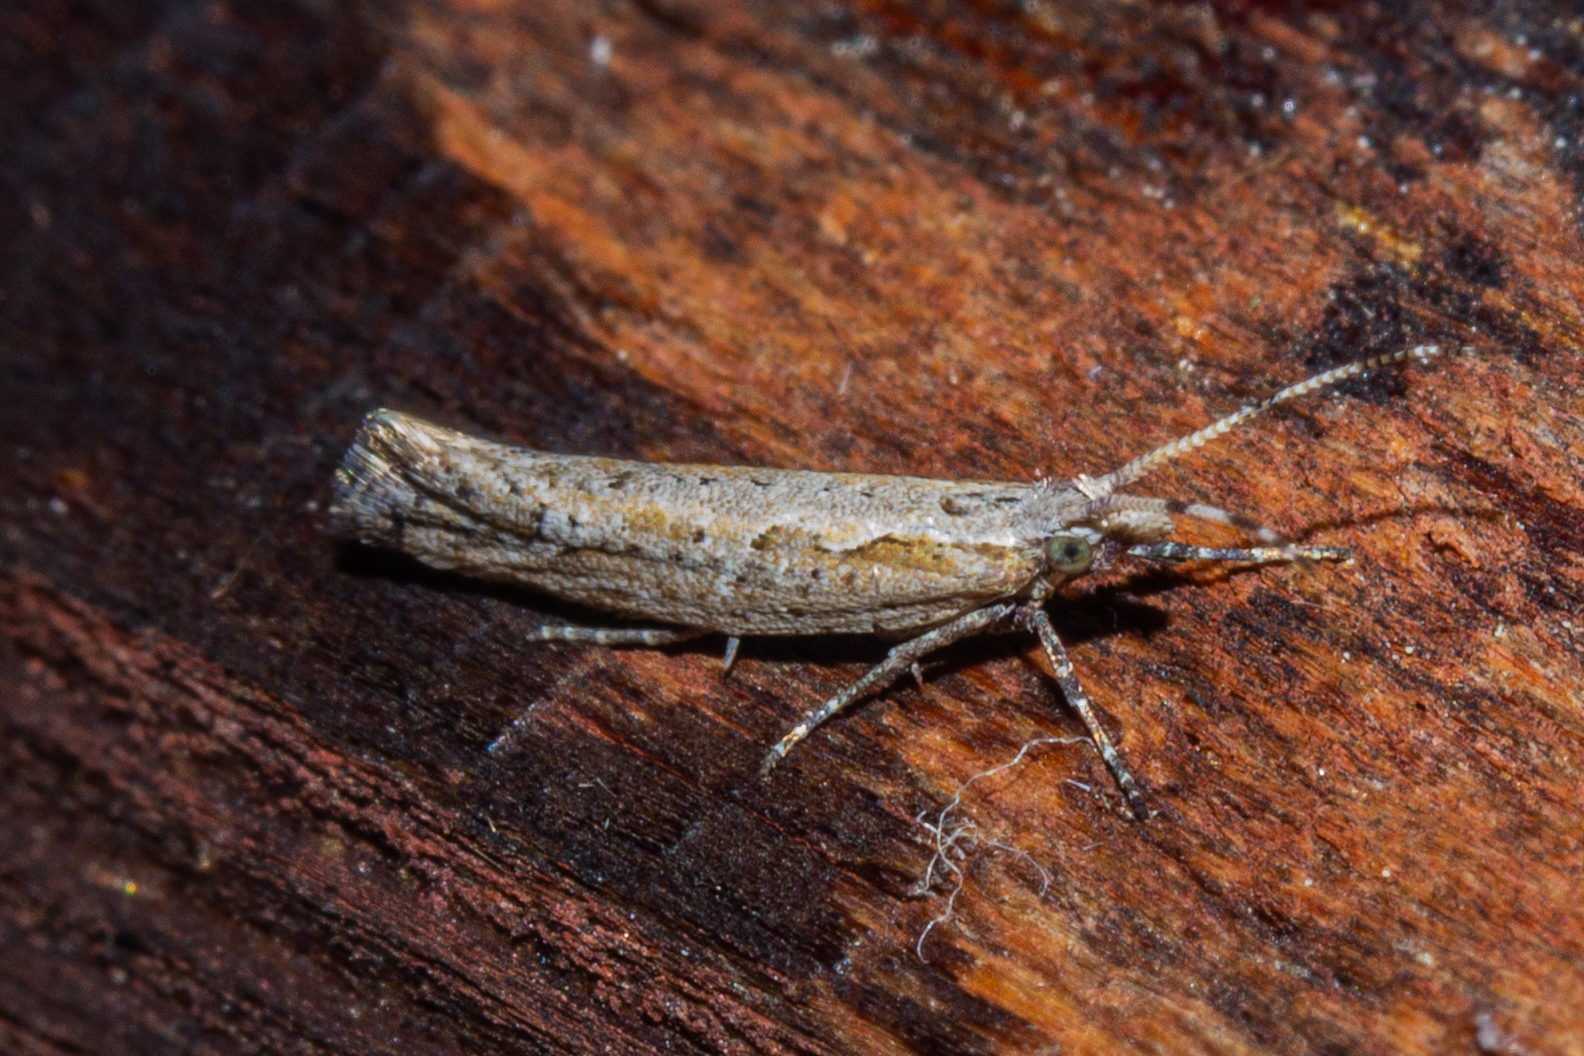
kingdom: Animalia
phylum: Arthropoda
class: Insecta
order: Lepidoptera
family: Plutellidae
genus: Plutella
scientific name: Plutella xylostella
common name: Diamond-back moth
